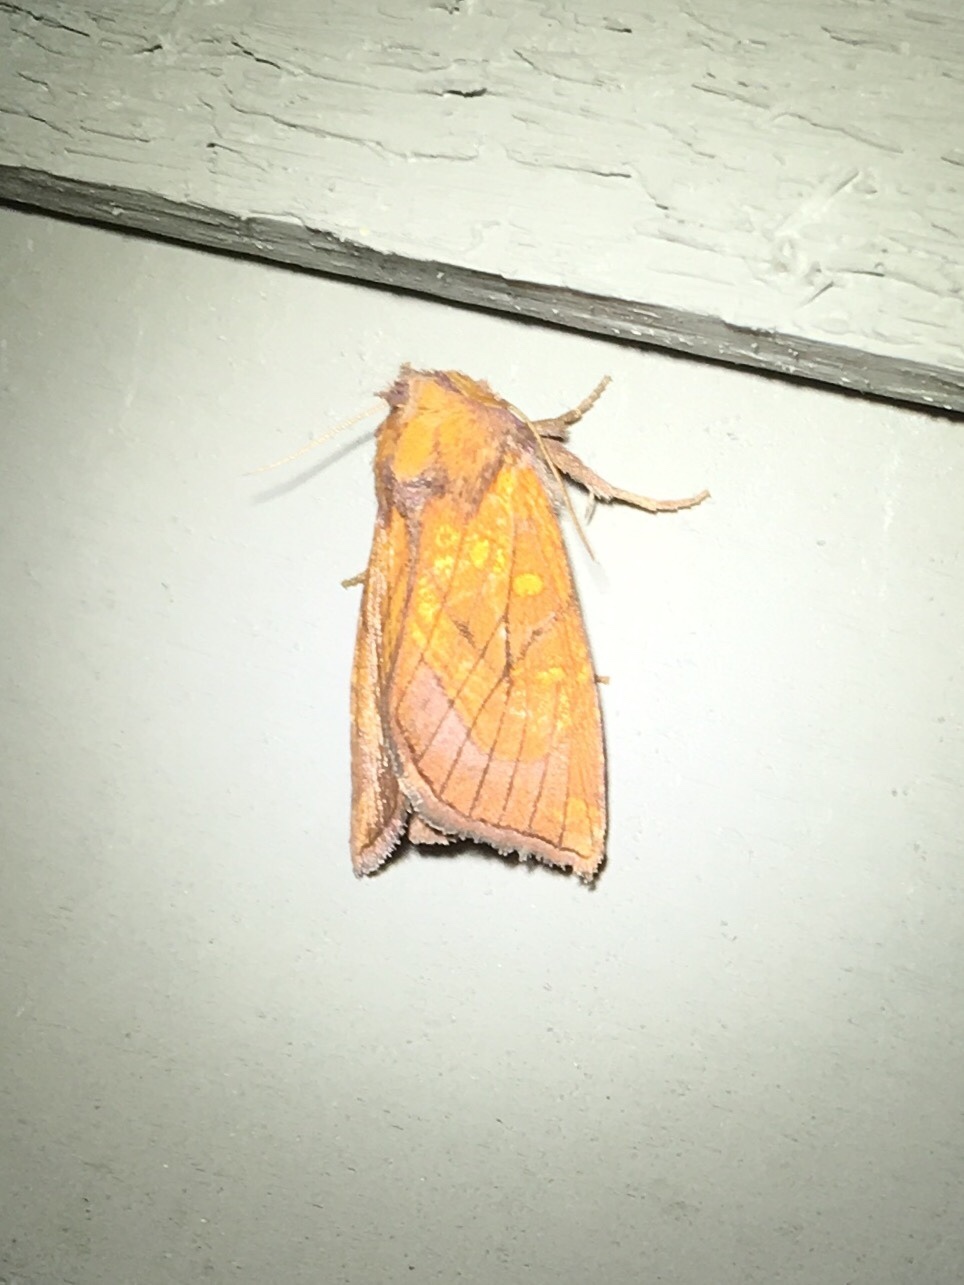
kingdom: Animalia
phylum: Arthropoda
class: Insecta
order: Lepidoptera
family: Noctuidae
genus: Papaipema
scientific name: Papaipema inquaesita
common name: Sensitive fern borer moth
